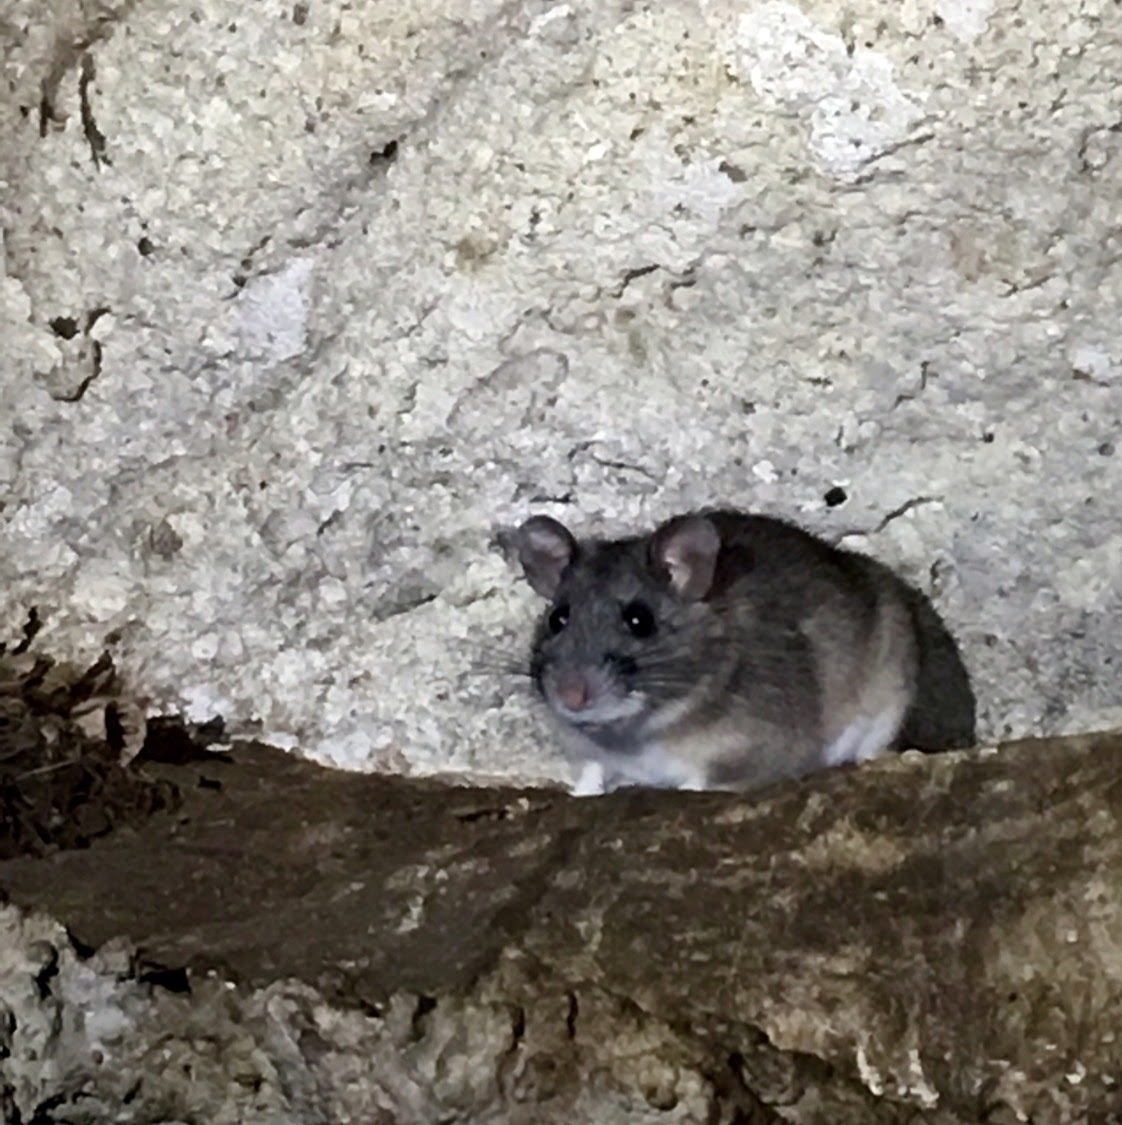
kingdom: Animalia
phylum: Chordata
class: Mammalia
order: Rodentia
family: Cricetidae
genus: Peromyscus
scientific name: Peromyscus leucopus
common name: White-footed deermouse
